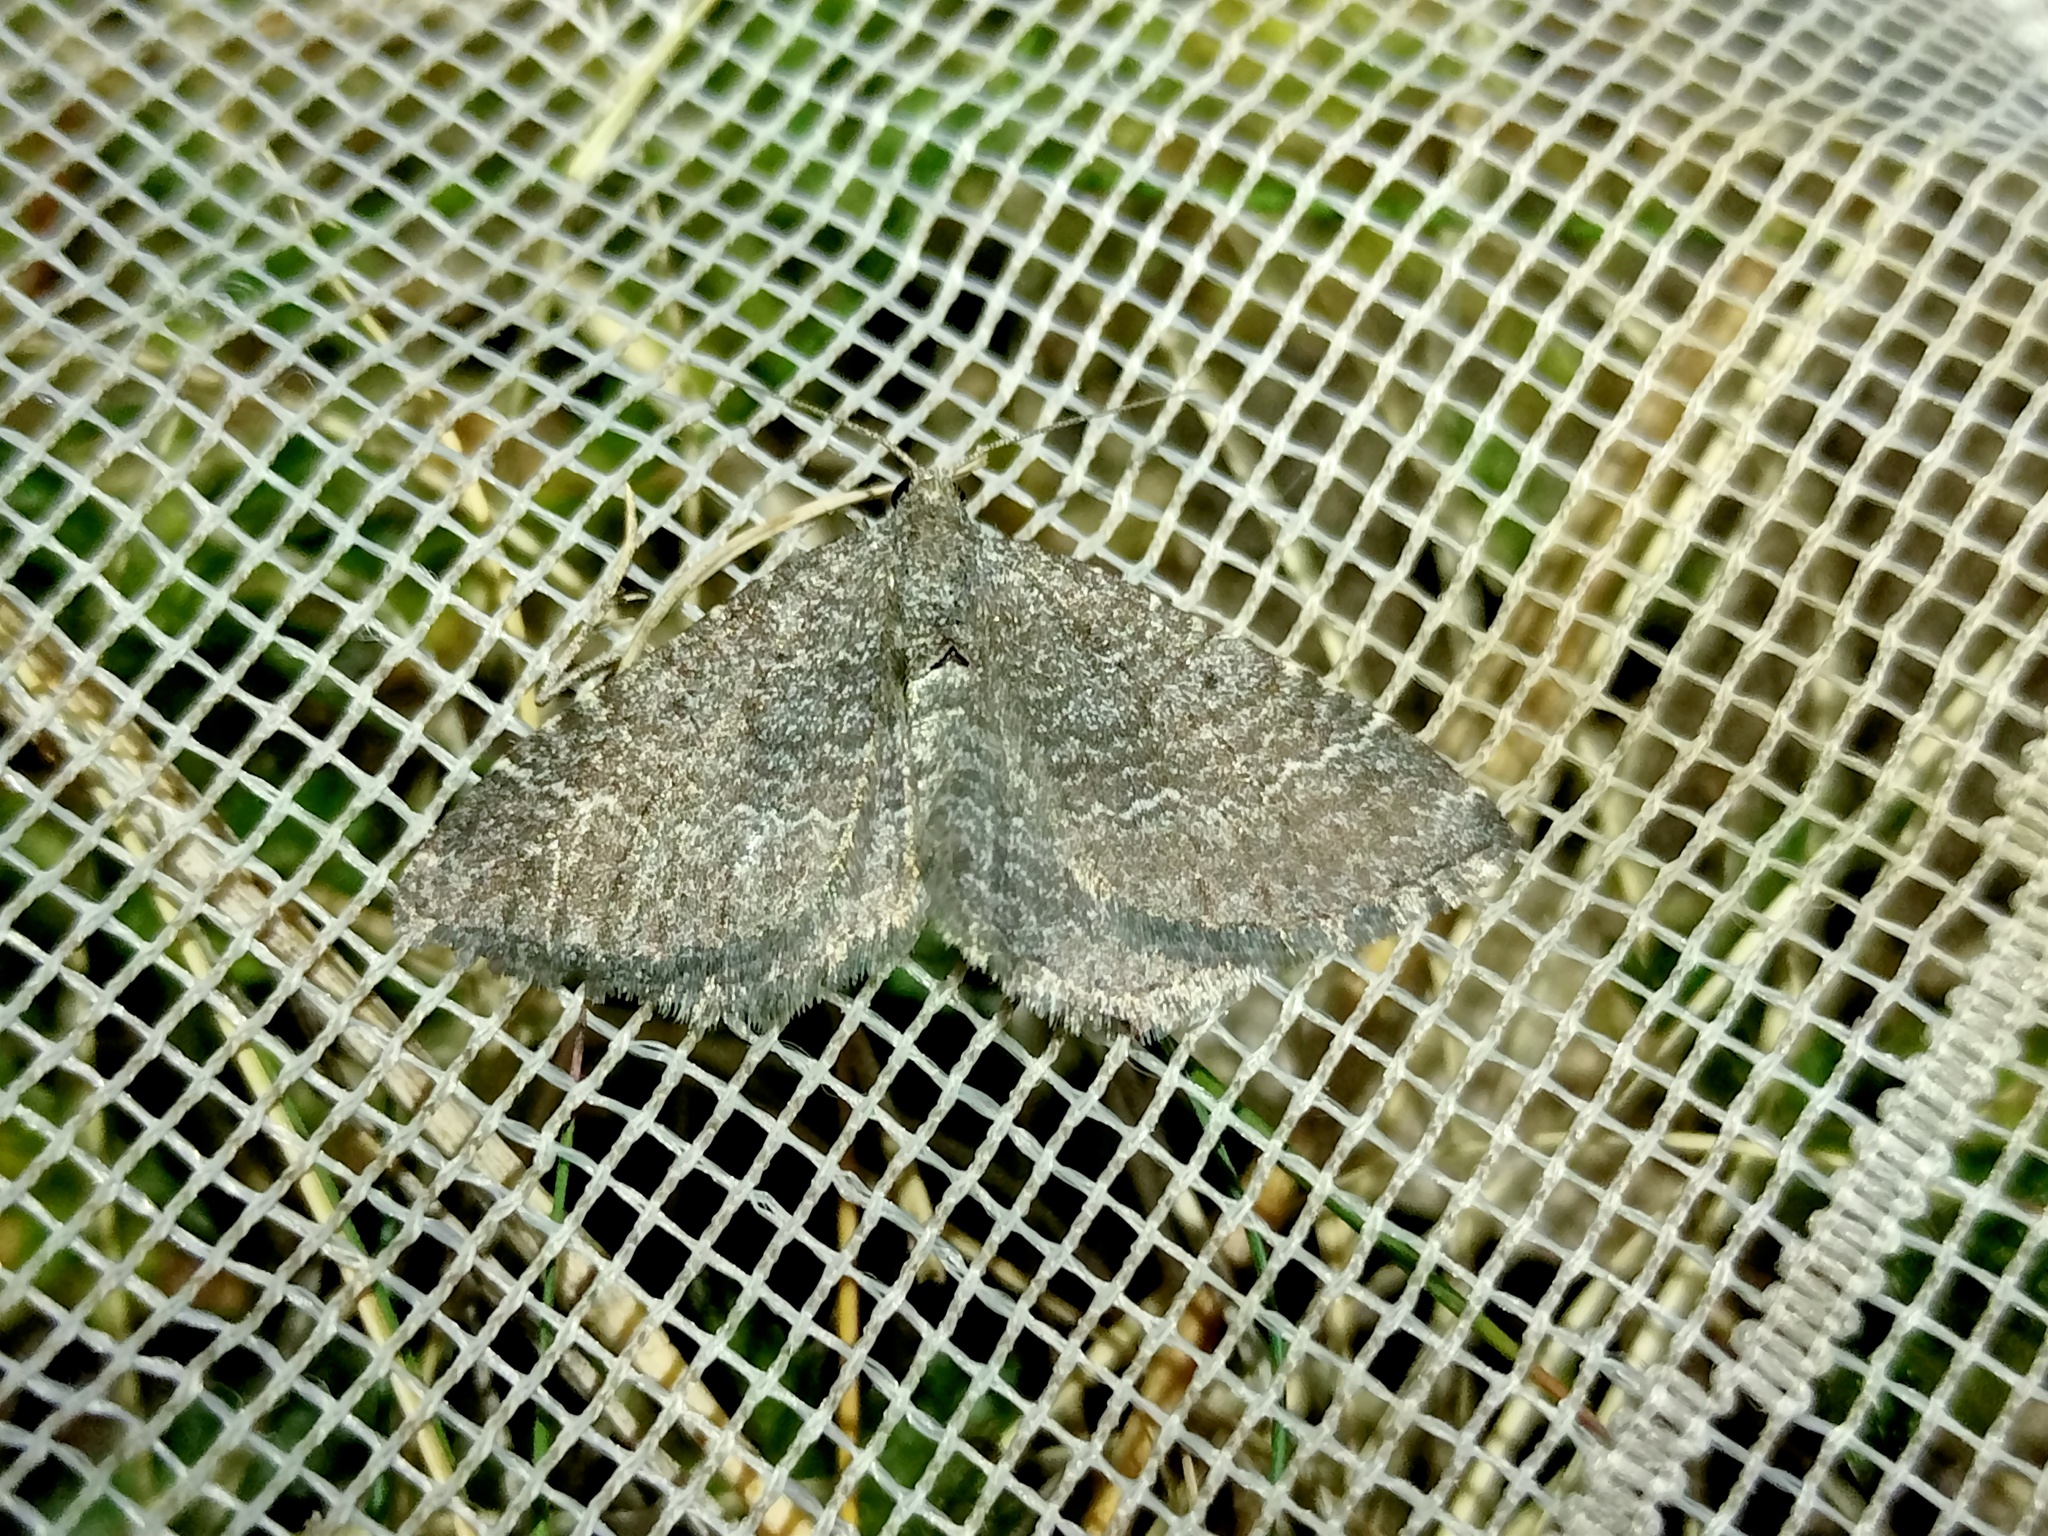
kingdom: Animalia
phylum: Arthropoda
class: Insecta
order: Lepidoptera
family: Geometridae
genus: Cataclysme
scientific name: Cataclysme riguata
